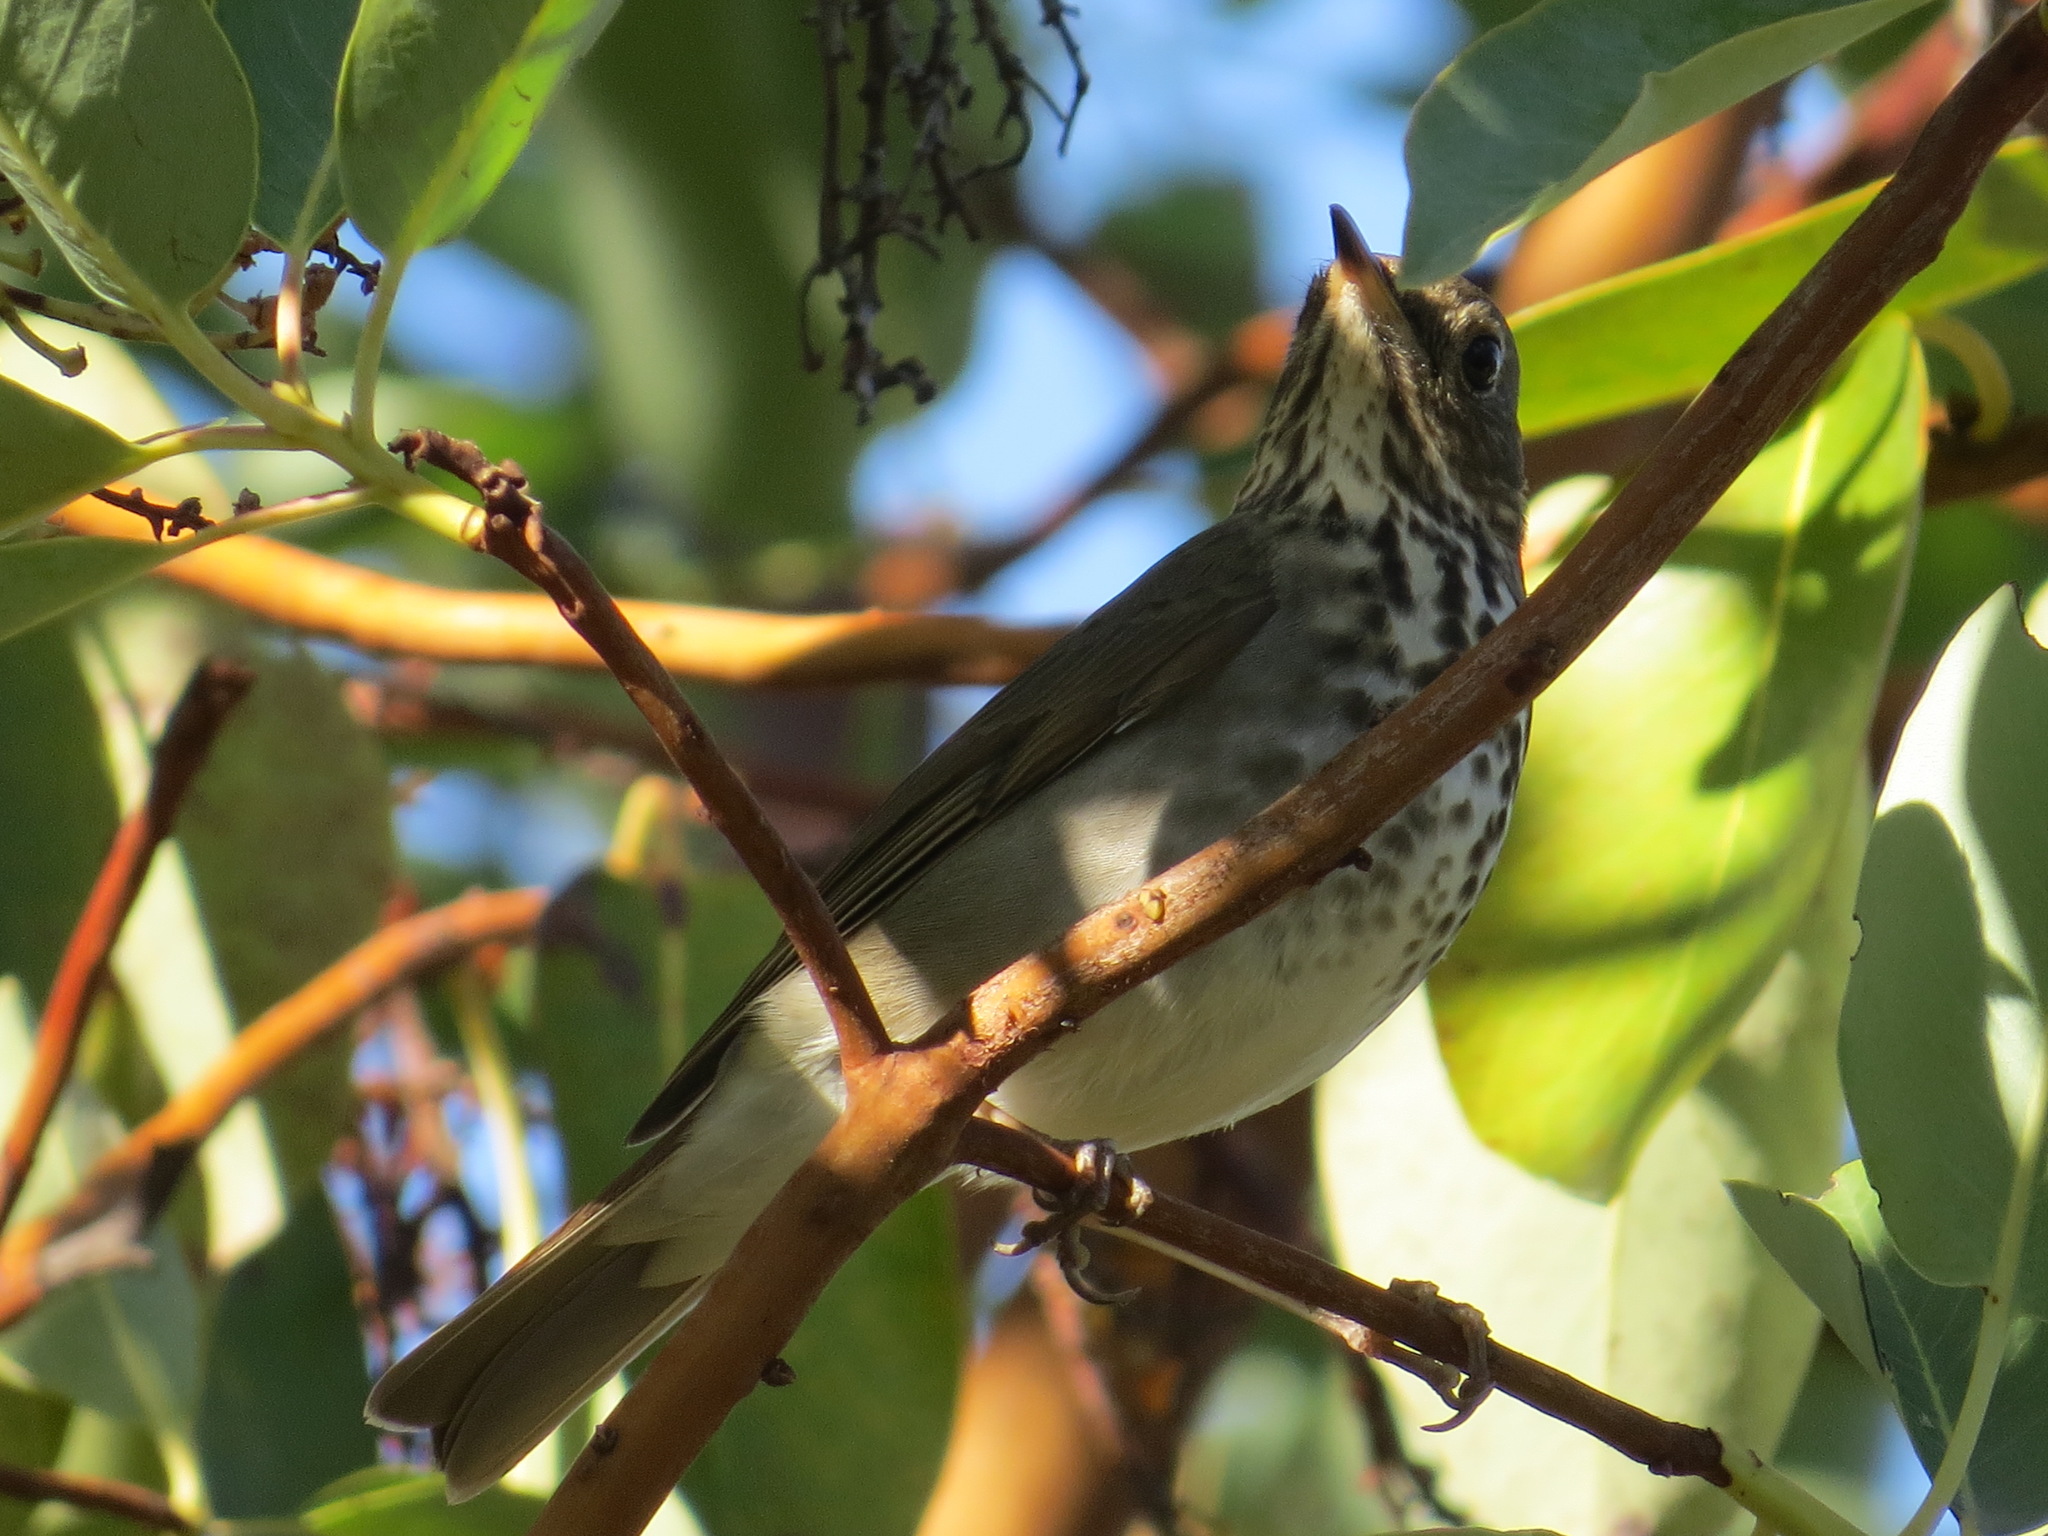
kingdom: Animalia
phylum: Chordata
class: Aves
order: Passeriformes
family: Turdidae
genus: Catharus
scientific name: Catharus guttatus
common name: Hermit thrush
